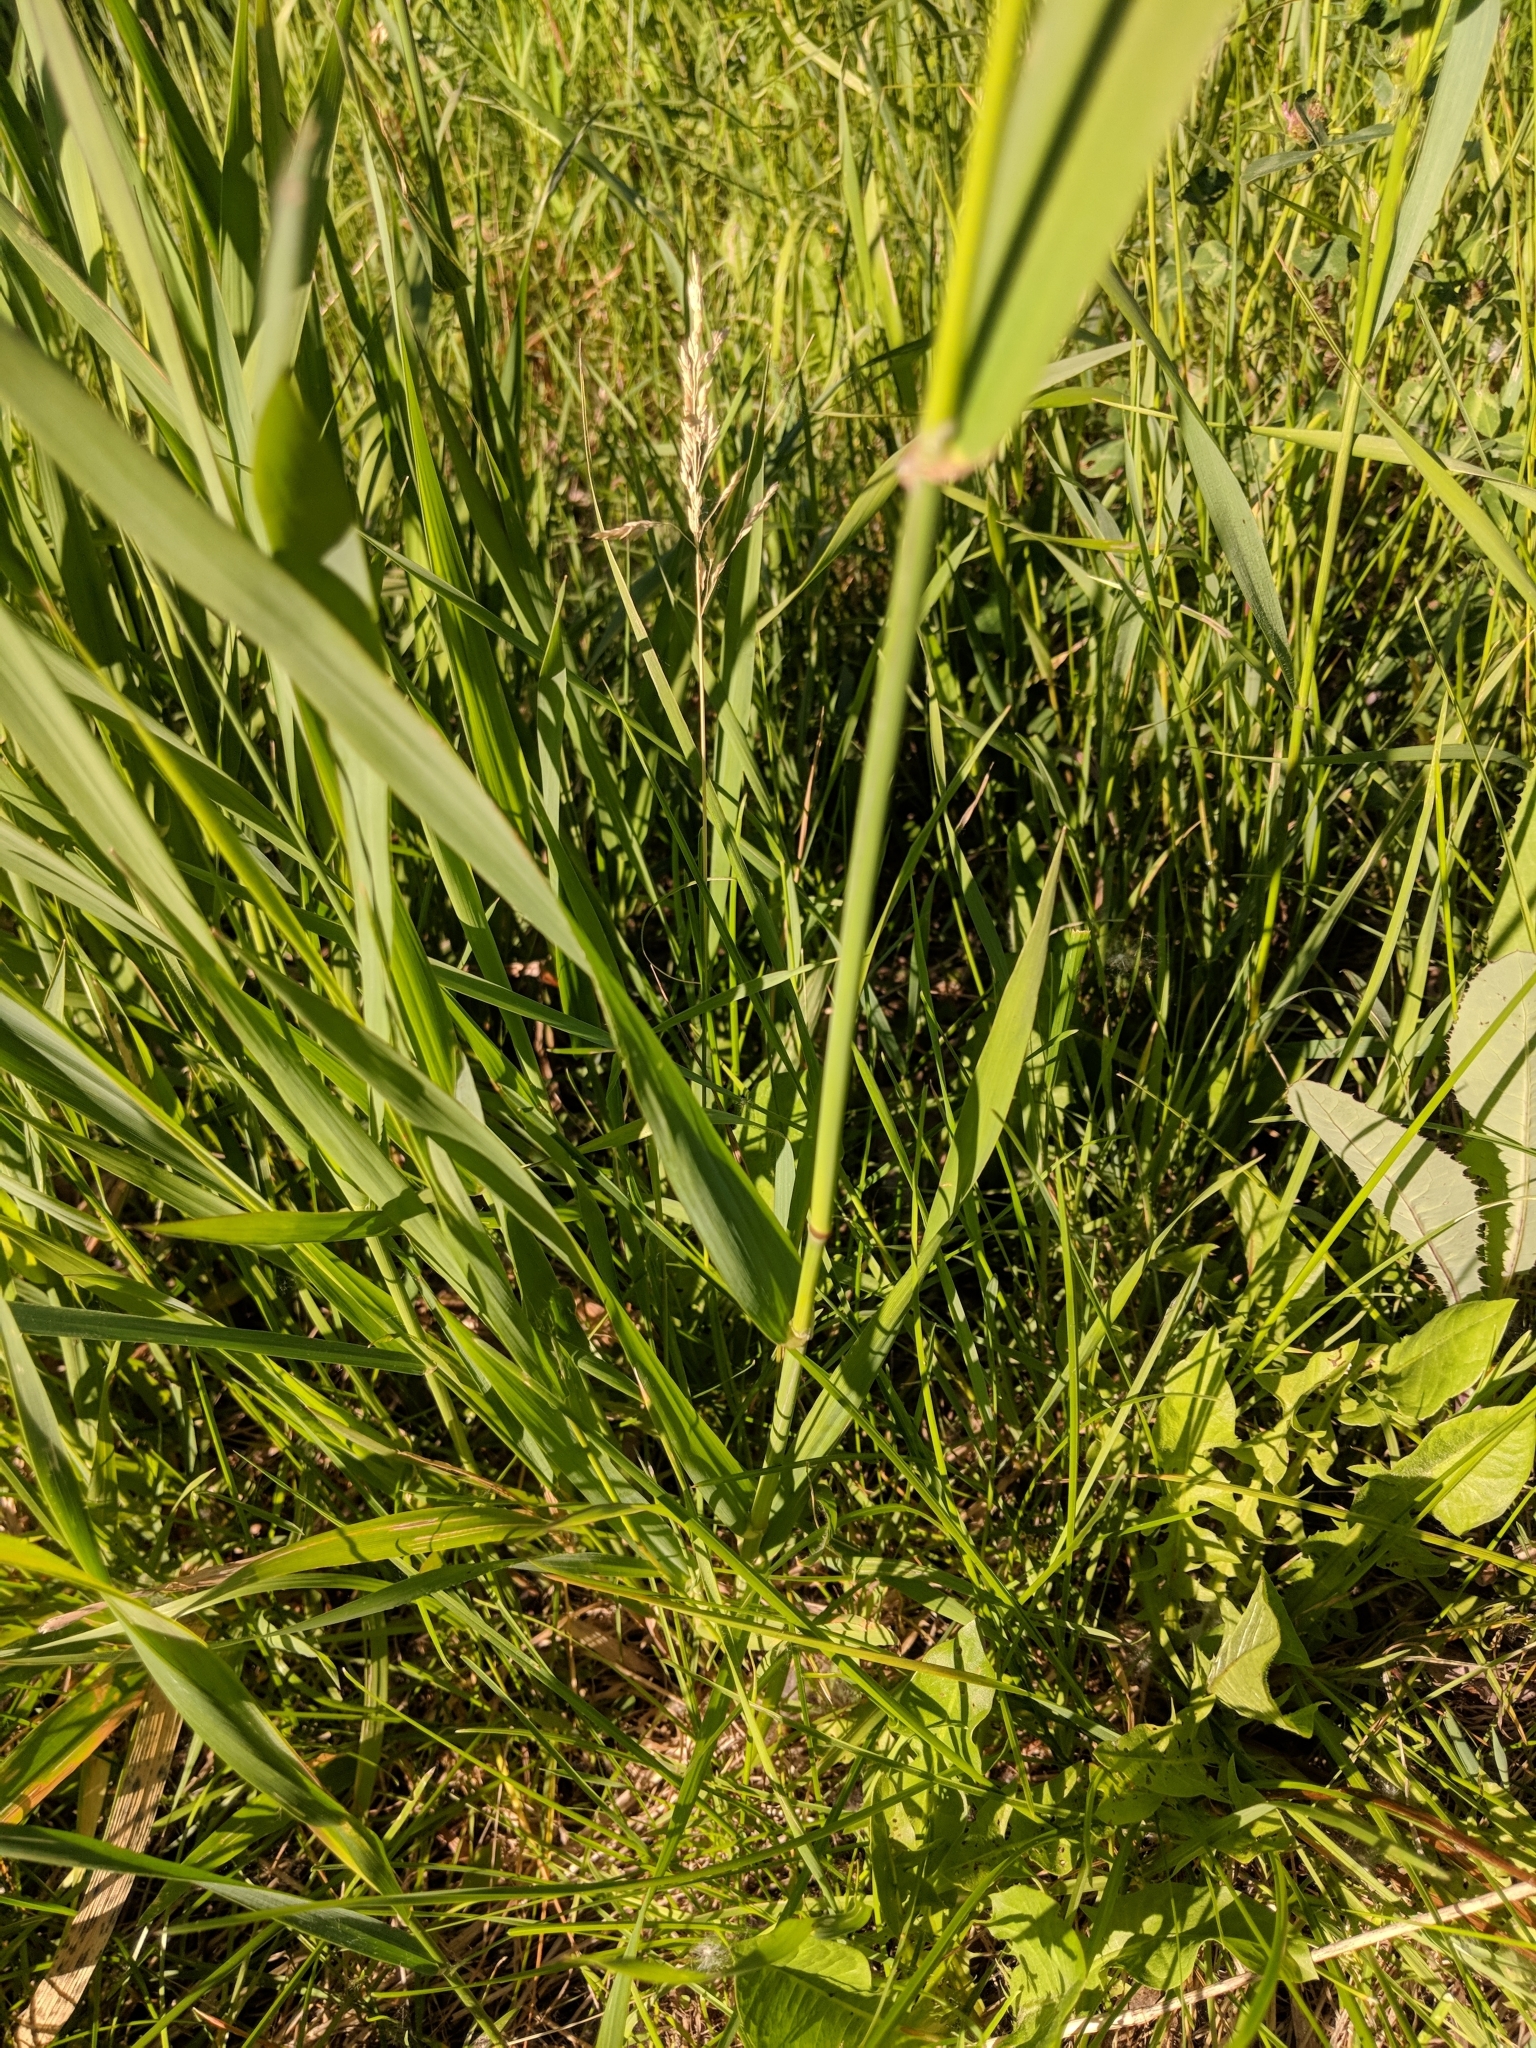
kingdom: Plantae
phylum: Tracheophyta
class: Liliopsida
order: Poales
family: Poaceae
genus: Phalaris
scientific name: Phalaris arundinacea
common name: Reed canary-grass
